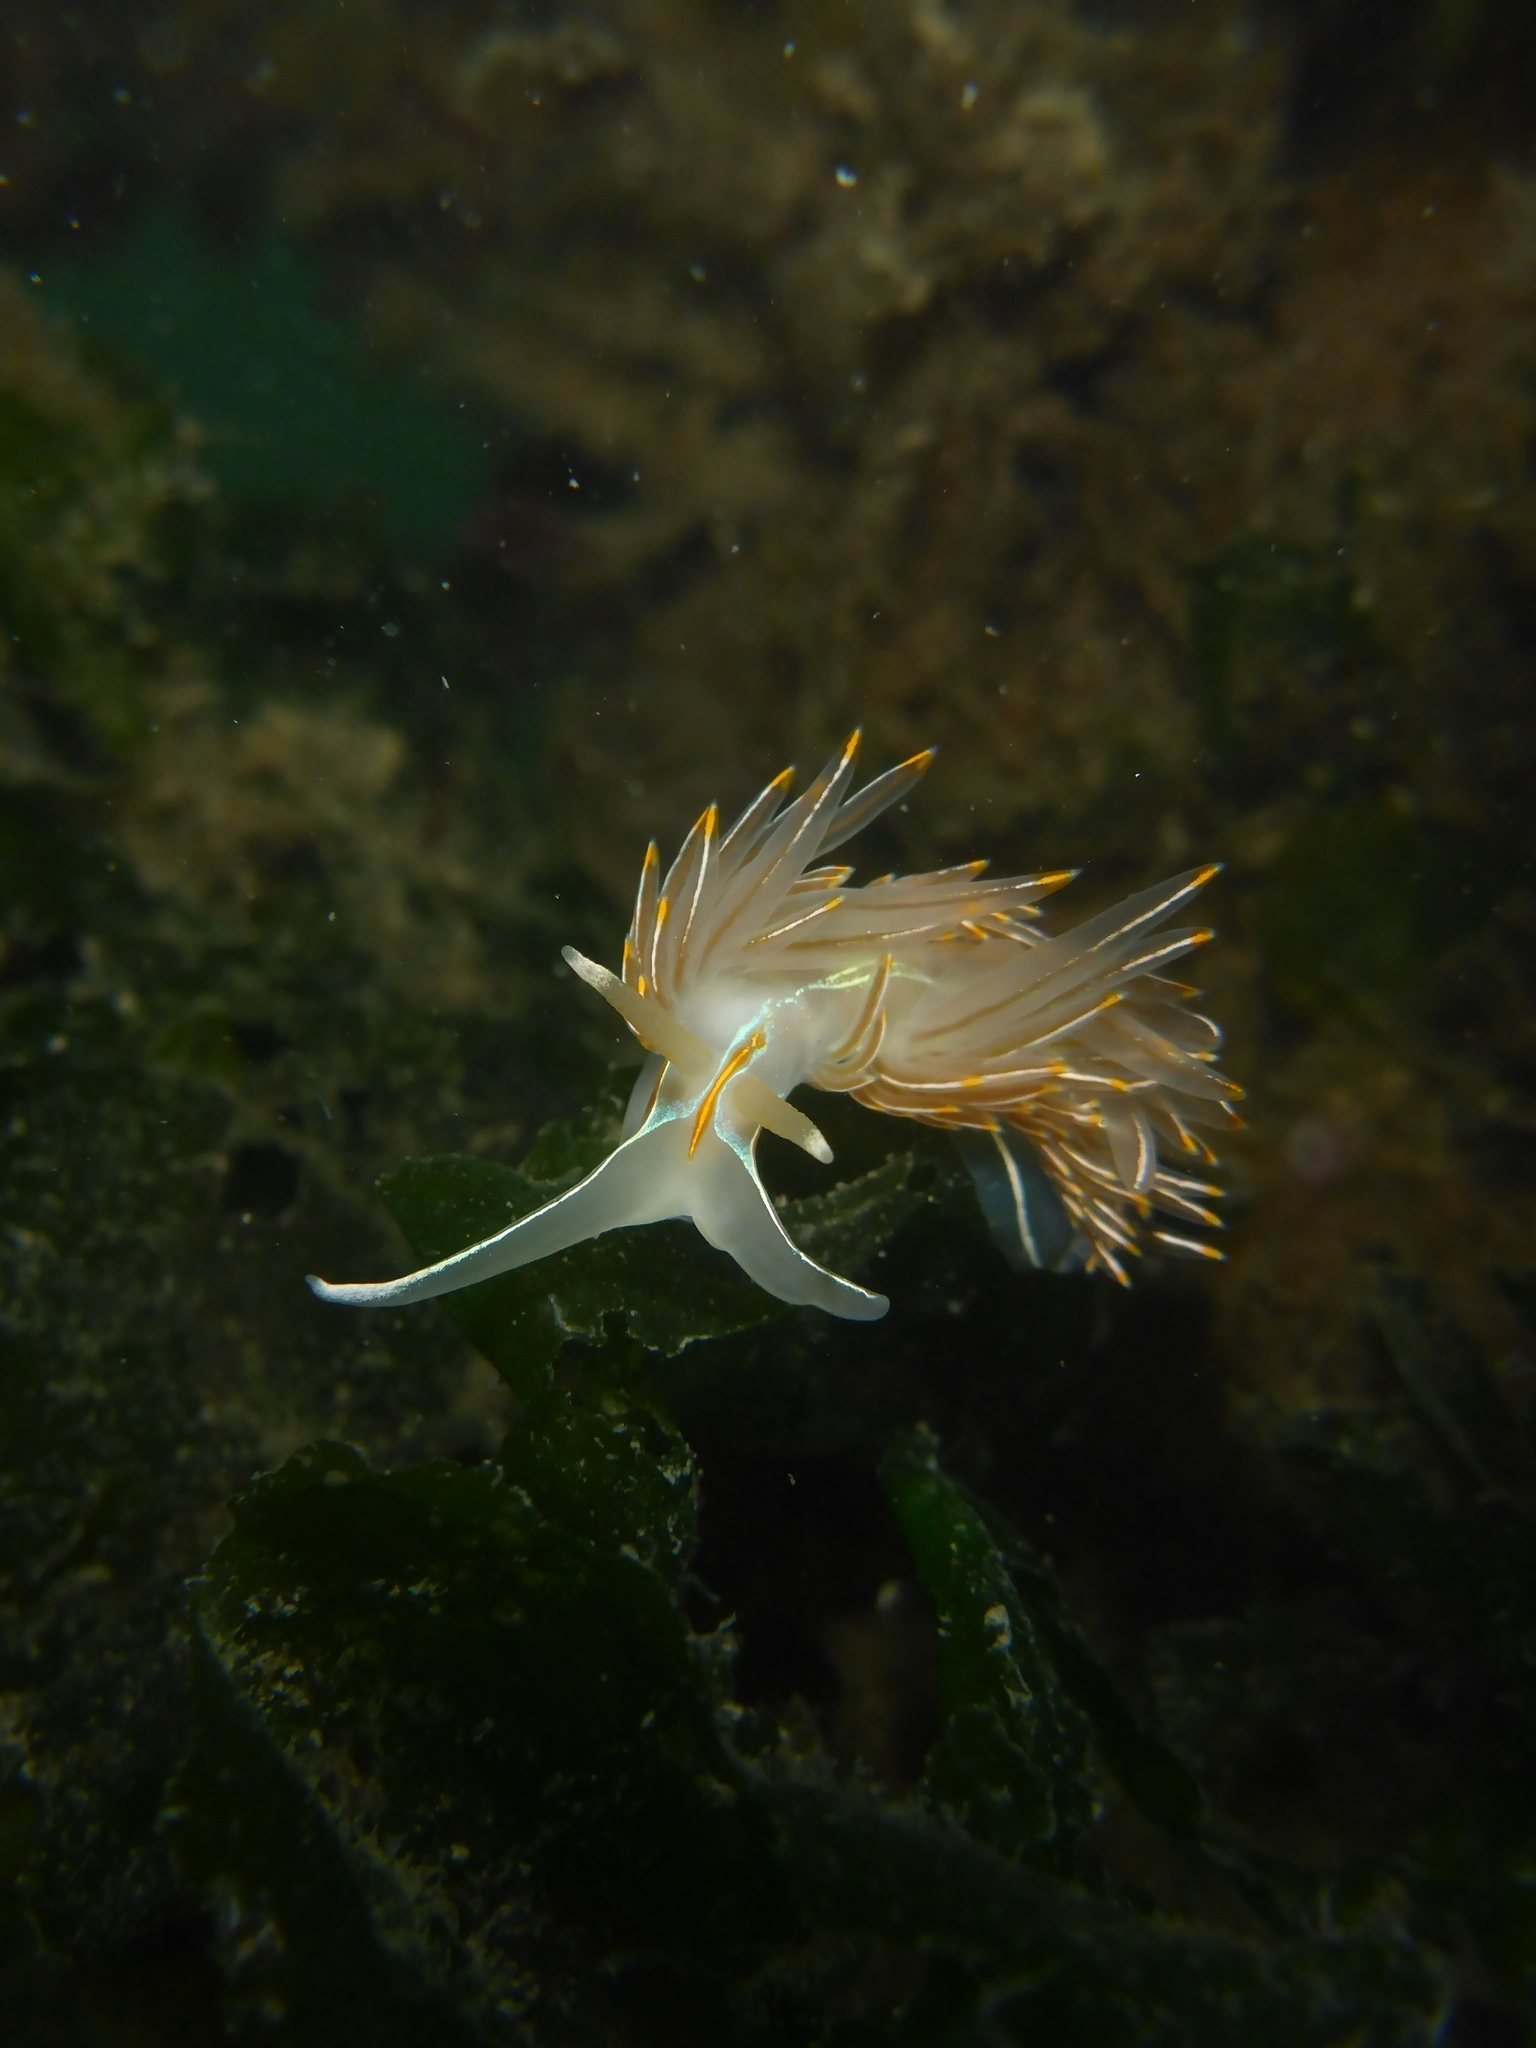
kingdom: Animalia
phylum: Mollusca
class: Gastropoda
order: Nudibranchia
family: Myrrhinidae
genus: Hermissenda
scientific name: Hermissenda crassicornis
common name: Hermissenda
